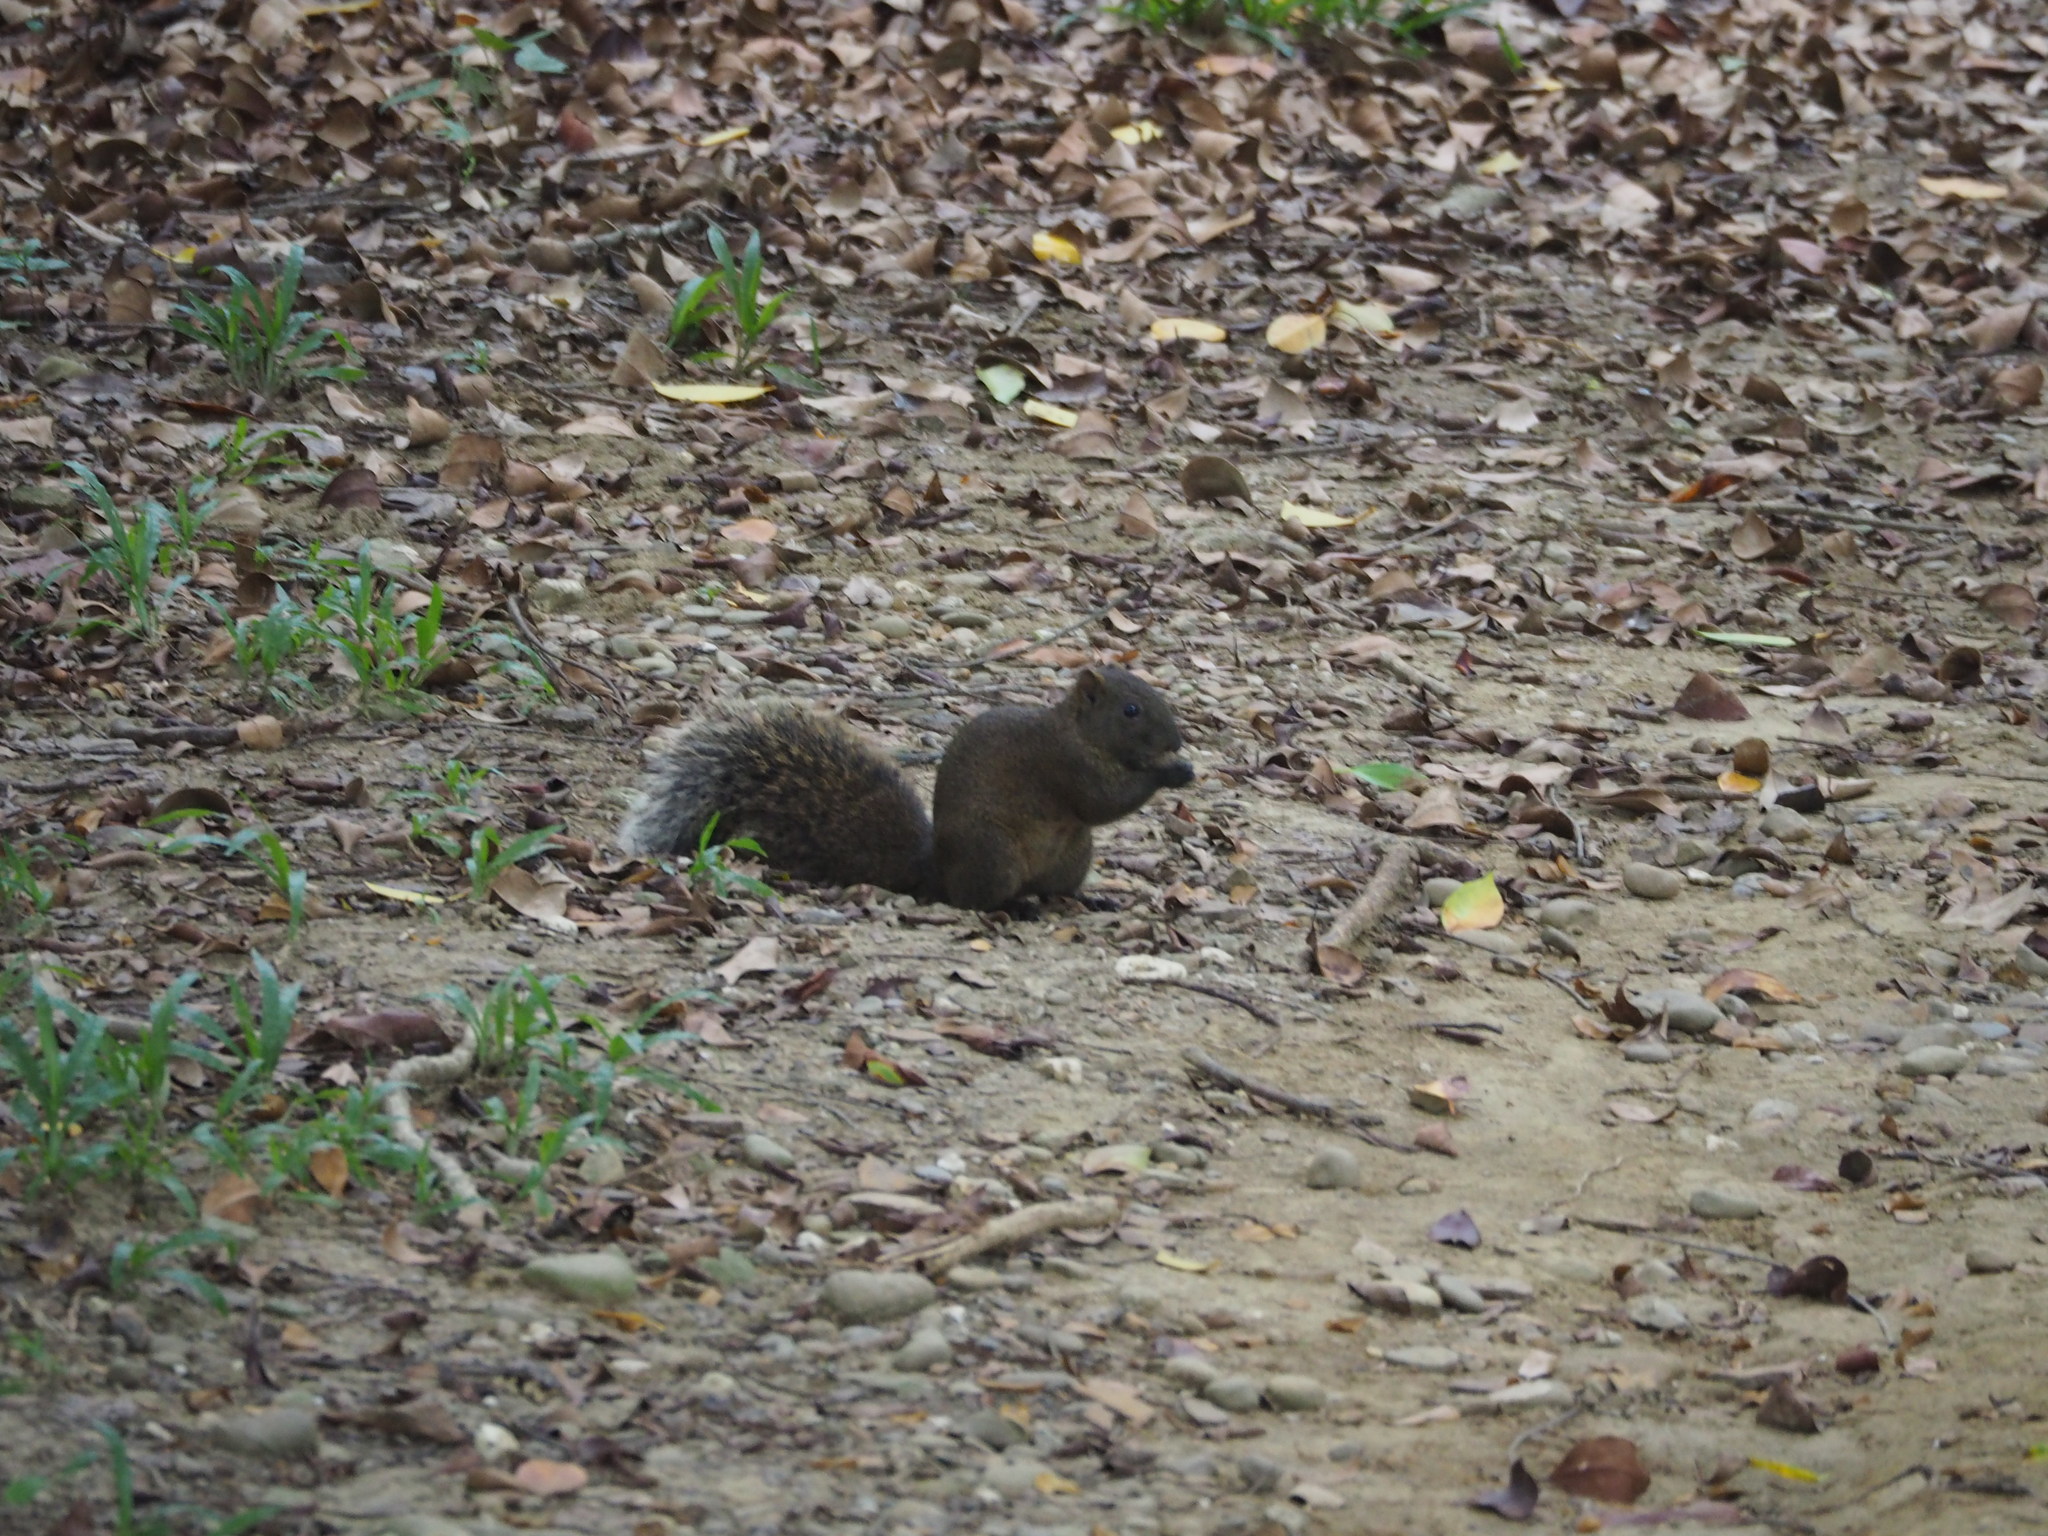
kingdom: Animalia
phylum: Chordata
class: Mammalia
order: Rodentia
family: Sciuridae
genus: Callosciurus
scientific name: Callosciurus erythraeus
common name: Pallas's squirrel
